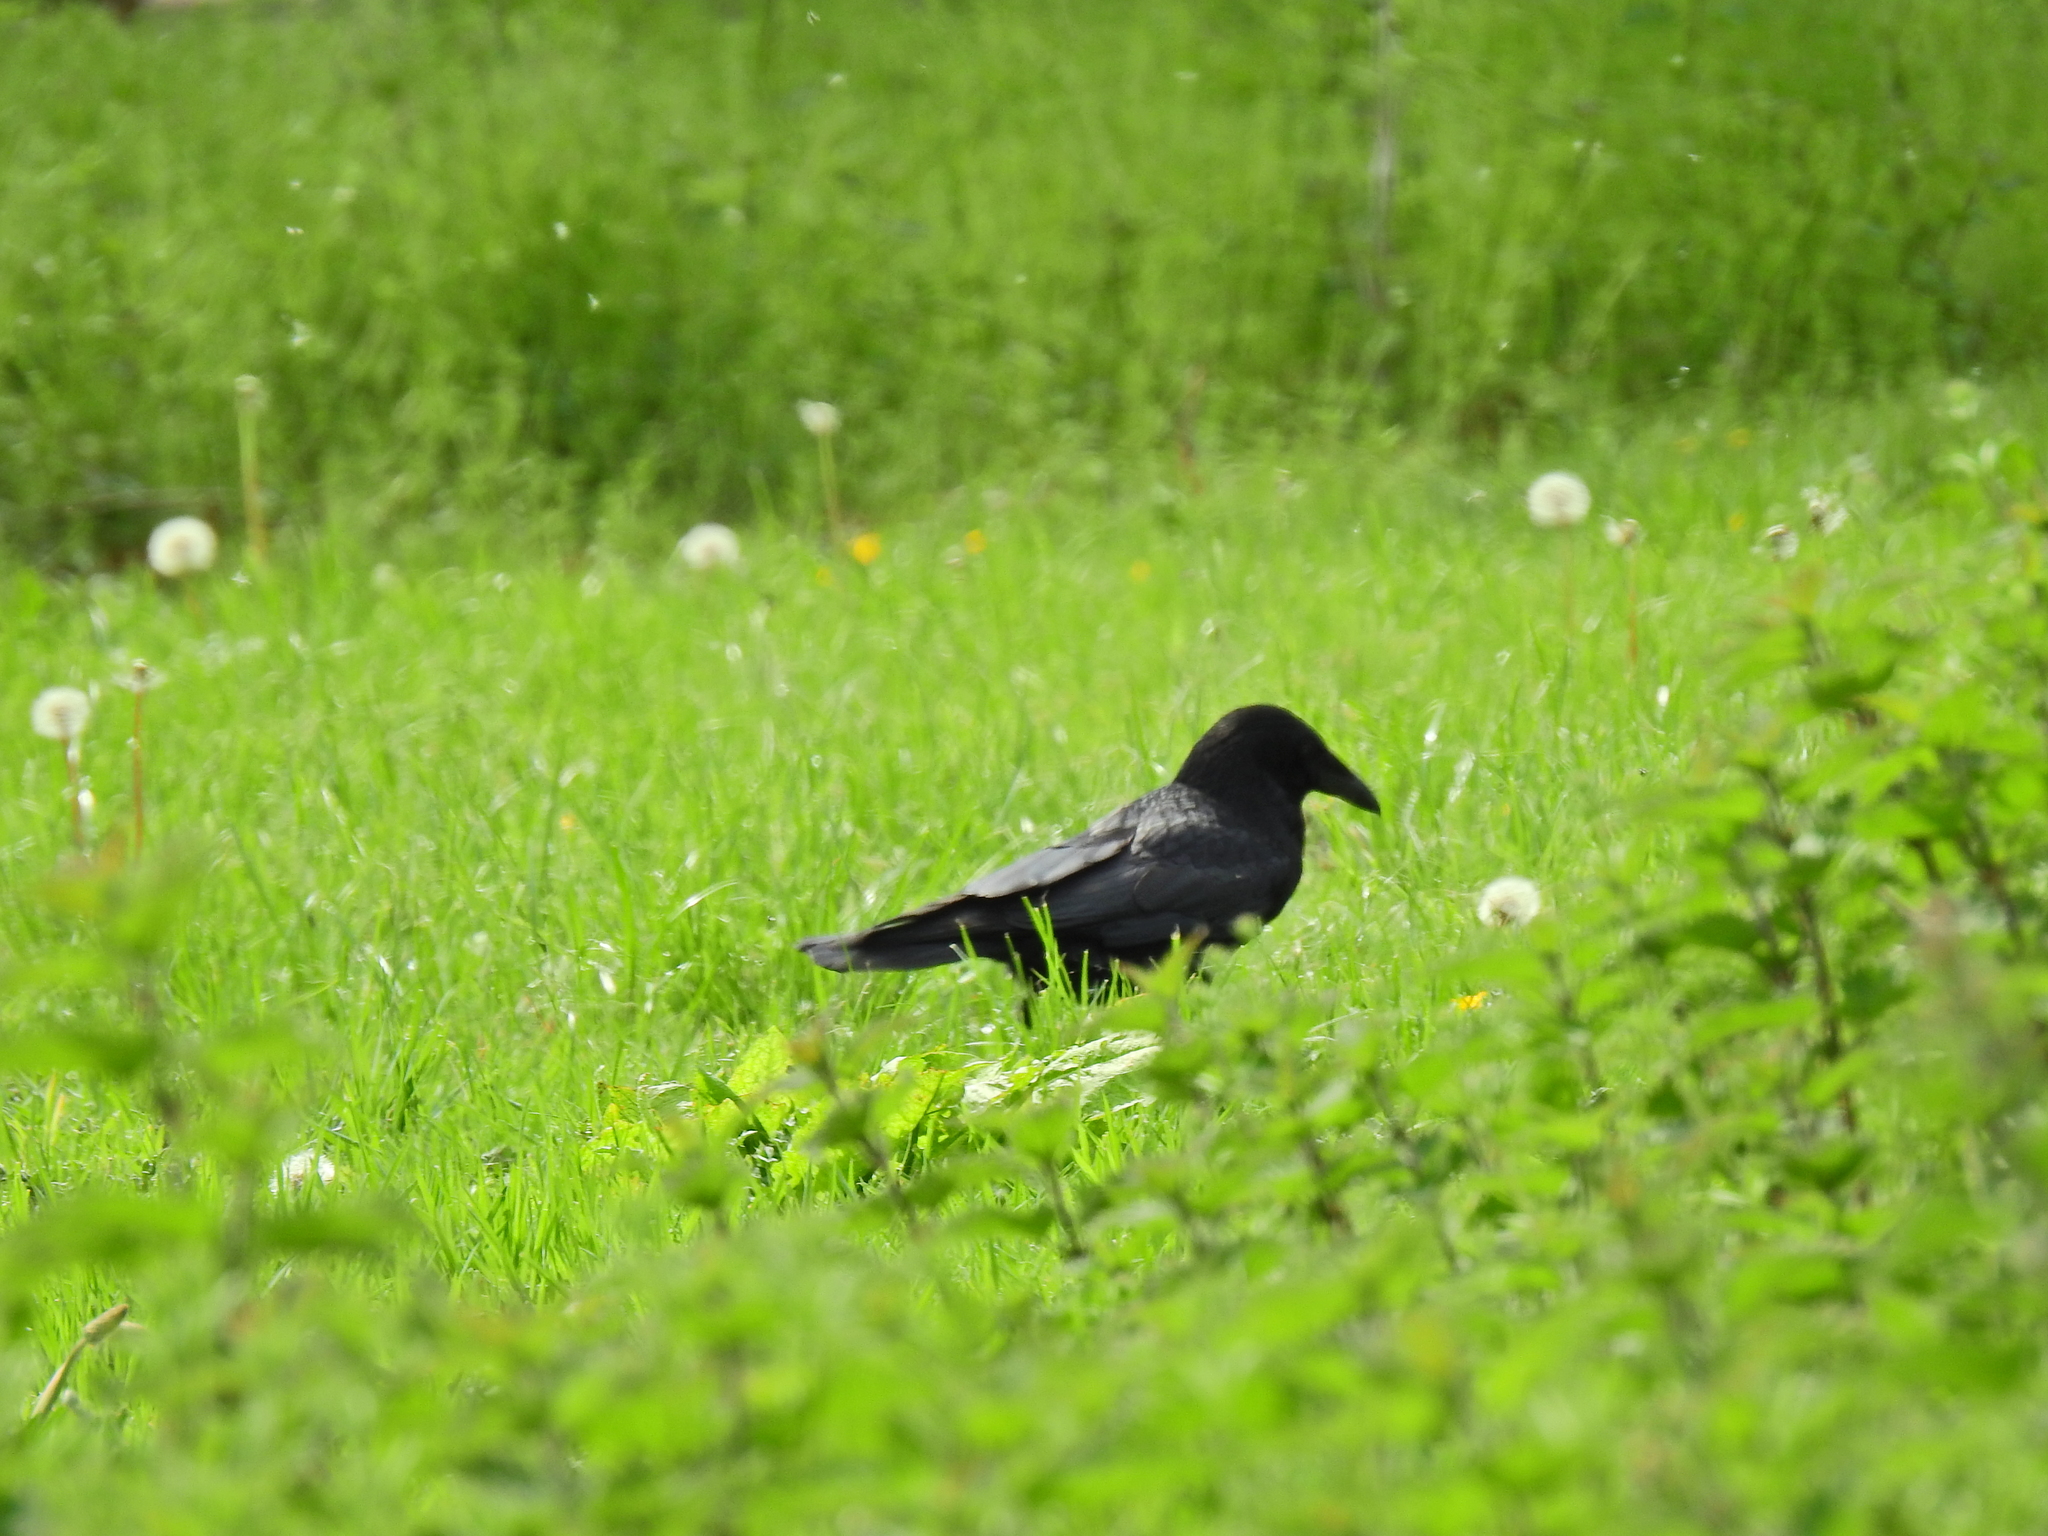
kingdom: Animalia
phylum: Chordata
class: Aves
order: Passeriformes
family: Corvidae
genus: Corvus
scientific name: Corvus corone
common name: Carrion crow
